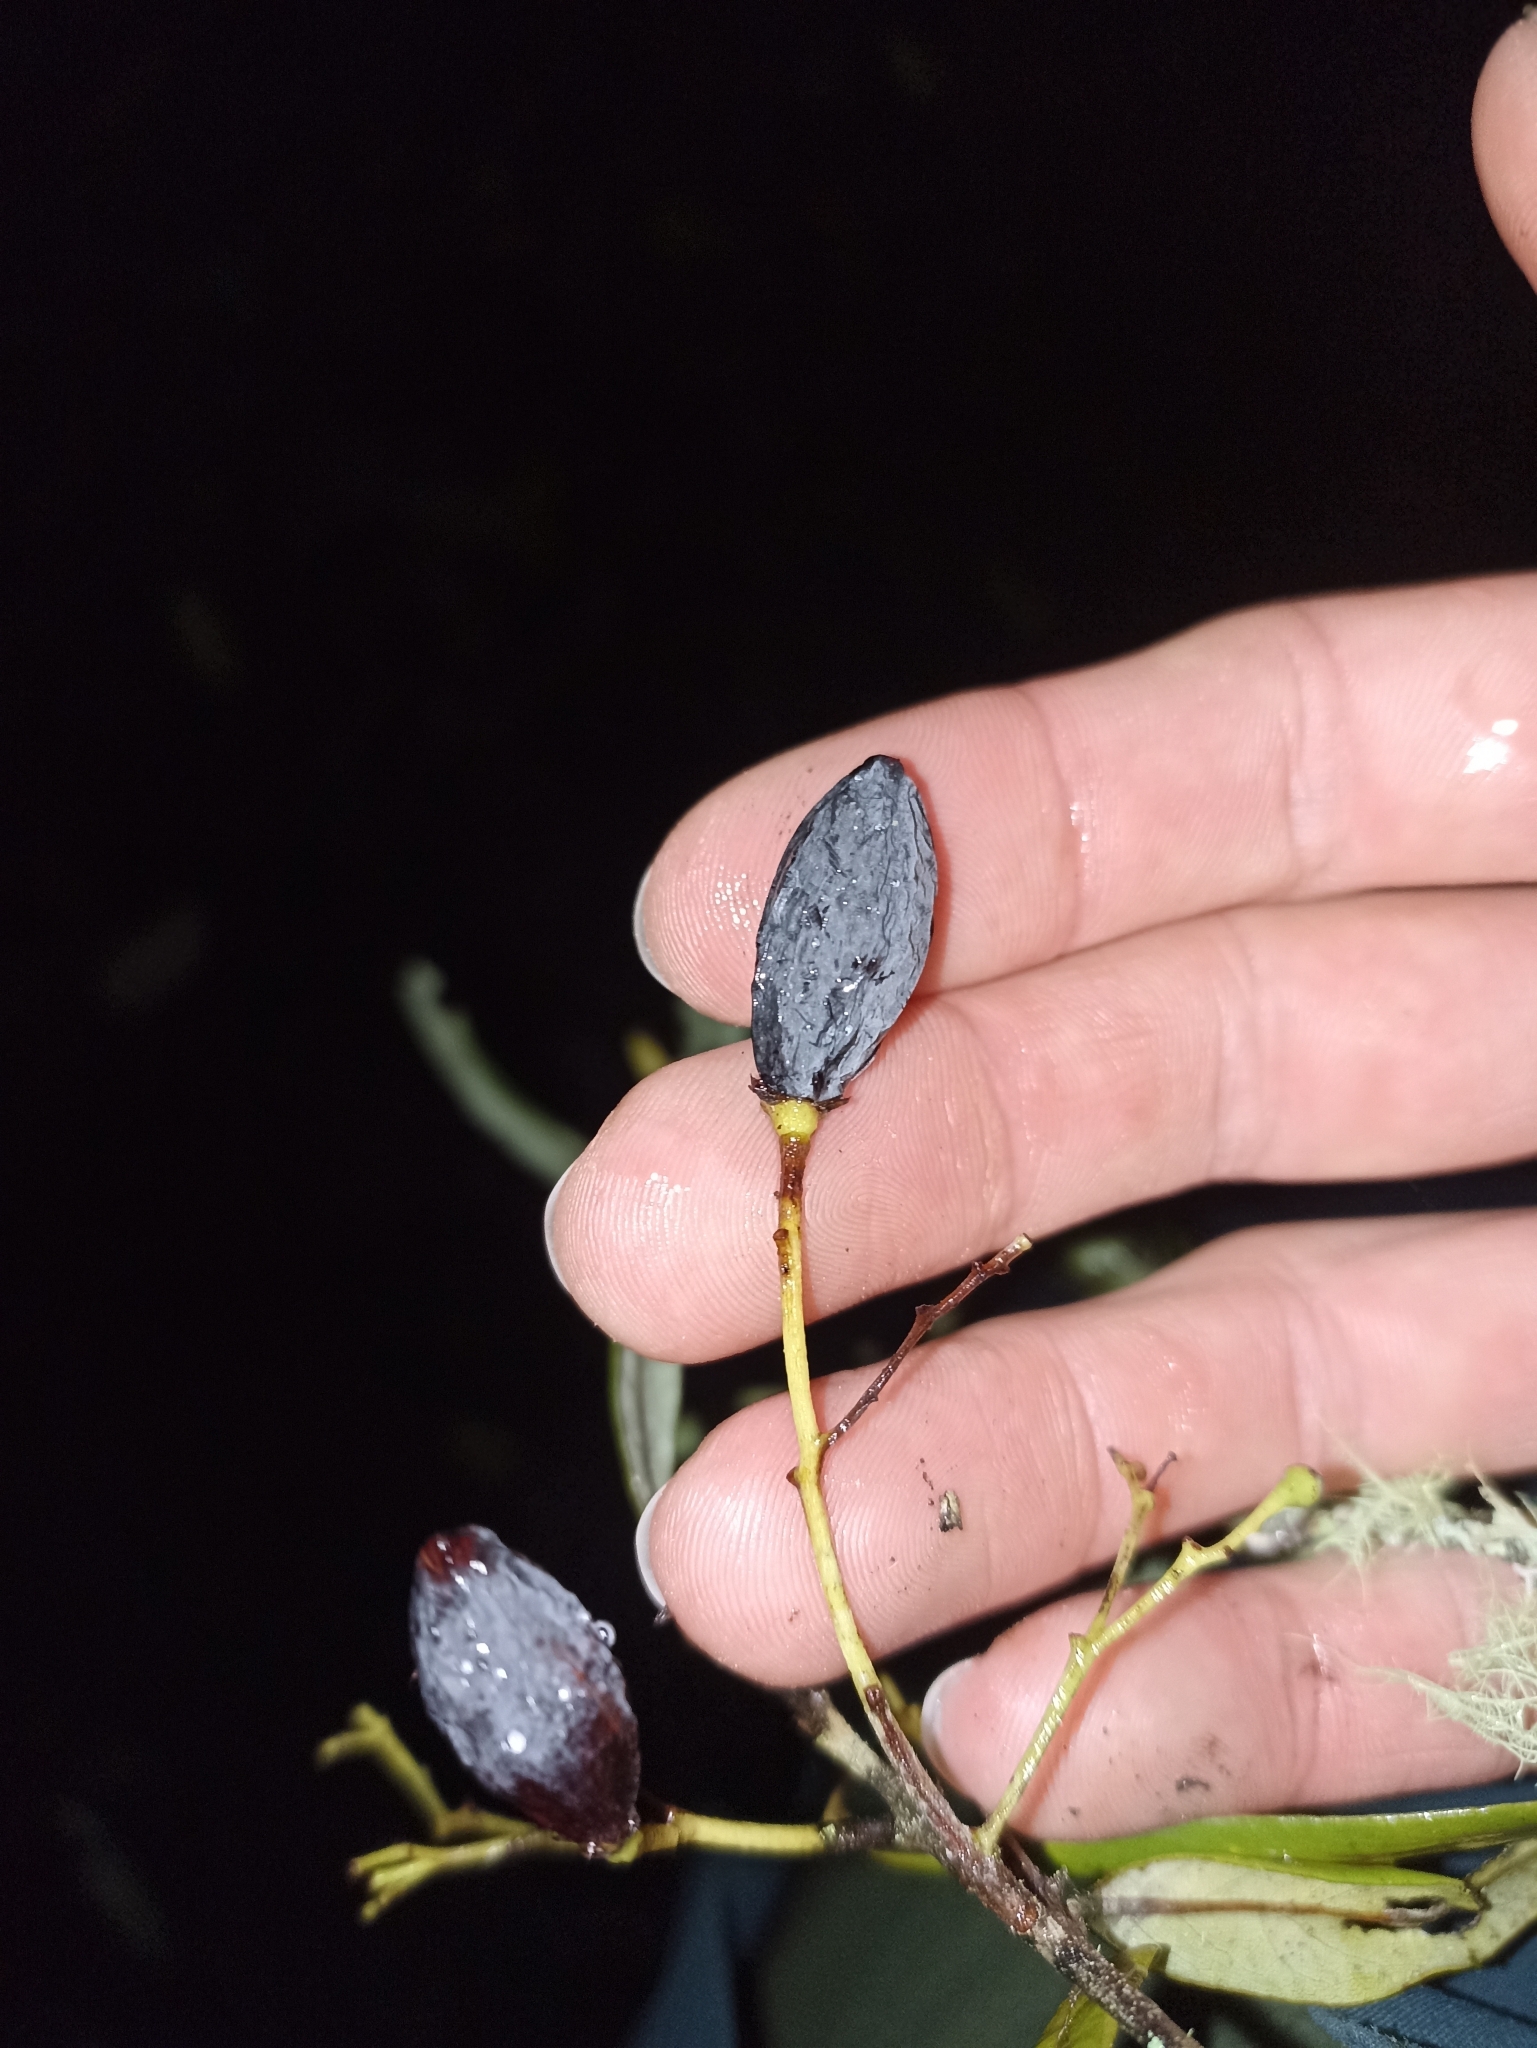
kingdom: Plantae
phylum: Tracheophyta
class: Magnoliopsida
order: Laurales
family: Lauraceae
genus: Beilschmiedia
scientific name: Beilschmiedia tawa
